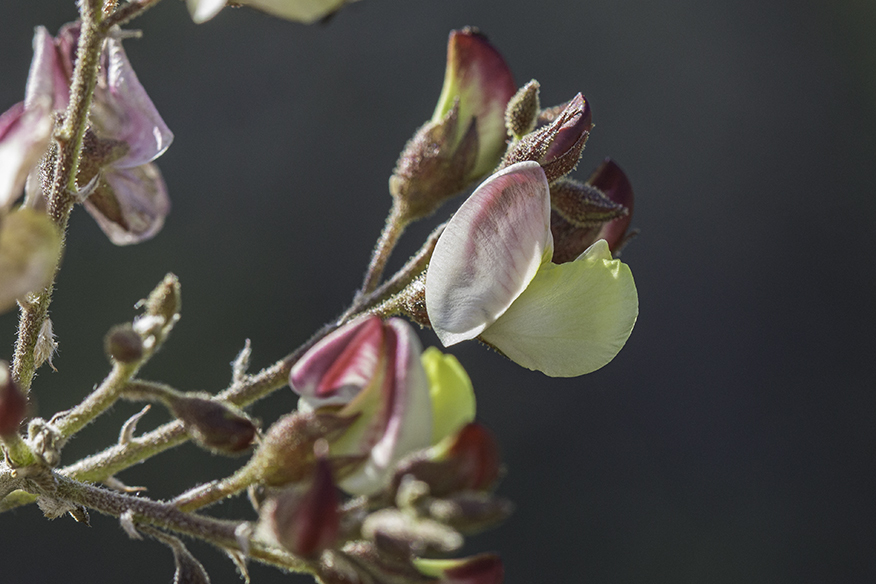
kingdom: Plantae
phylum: Tracheophyta
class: Magnoliopsida
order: Fabales
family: Fabaceae
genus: Coursetia
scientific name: Coursetia glandulosa
